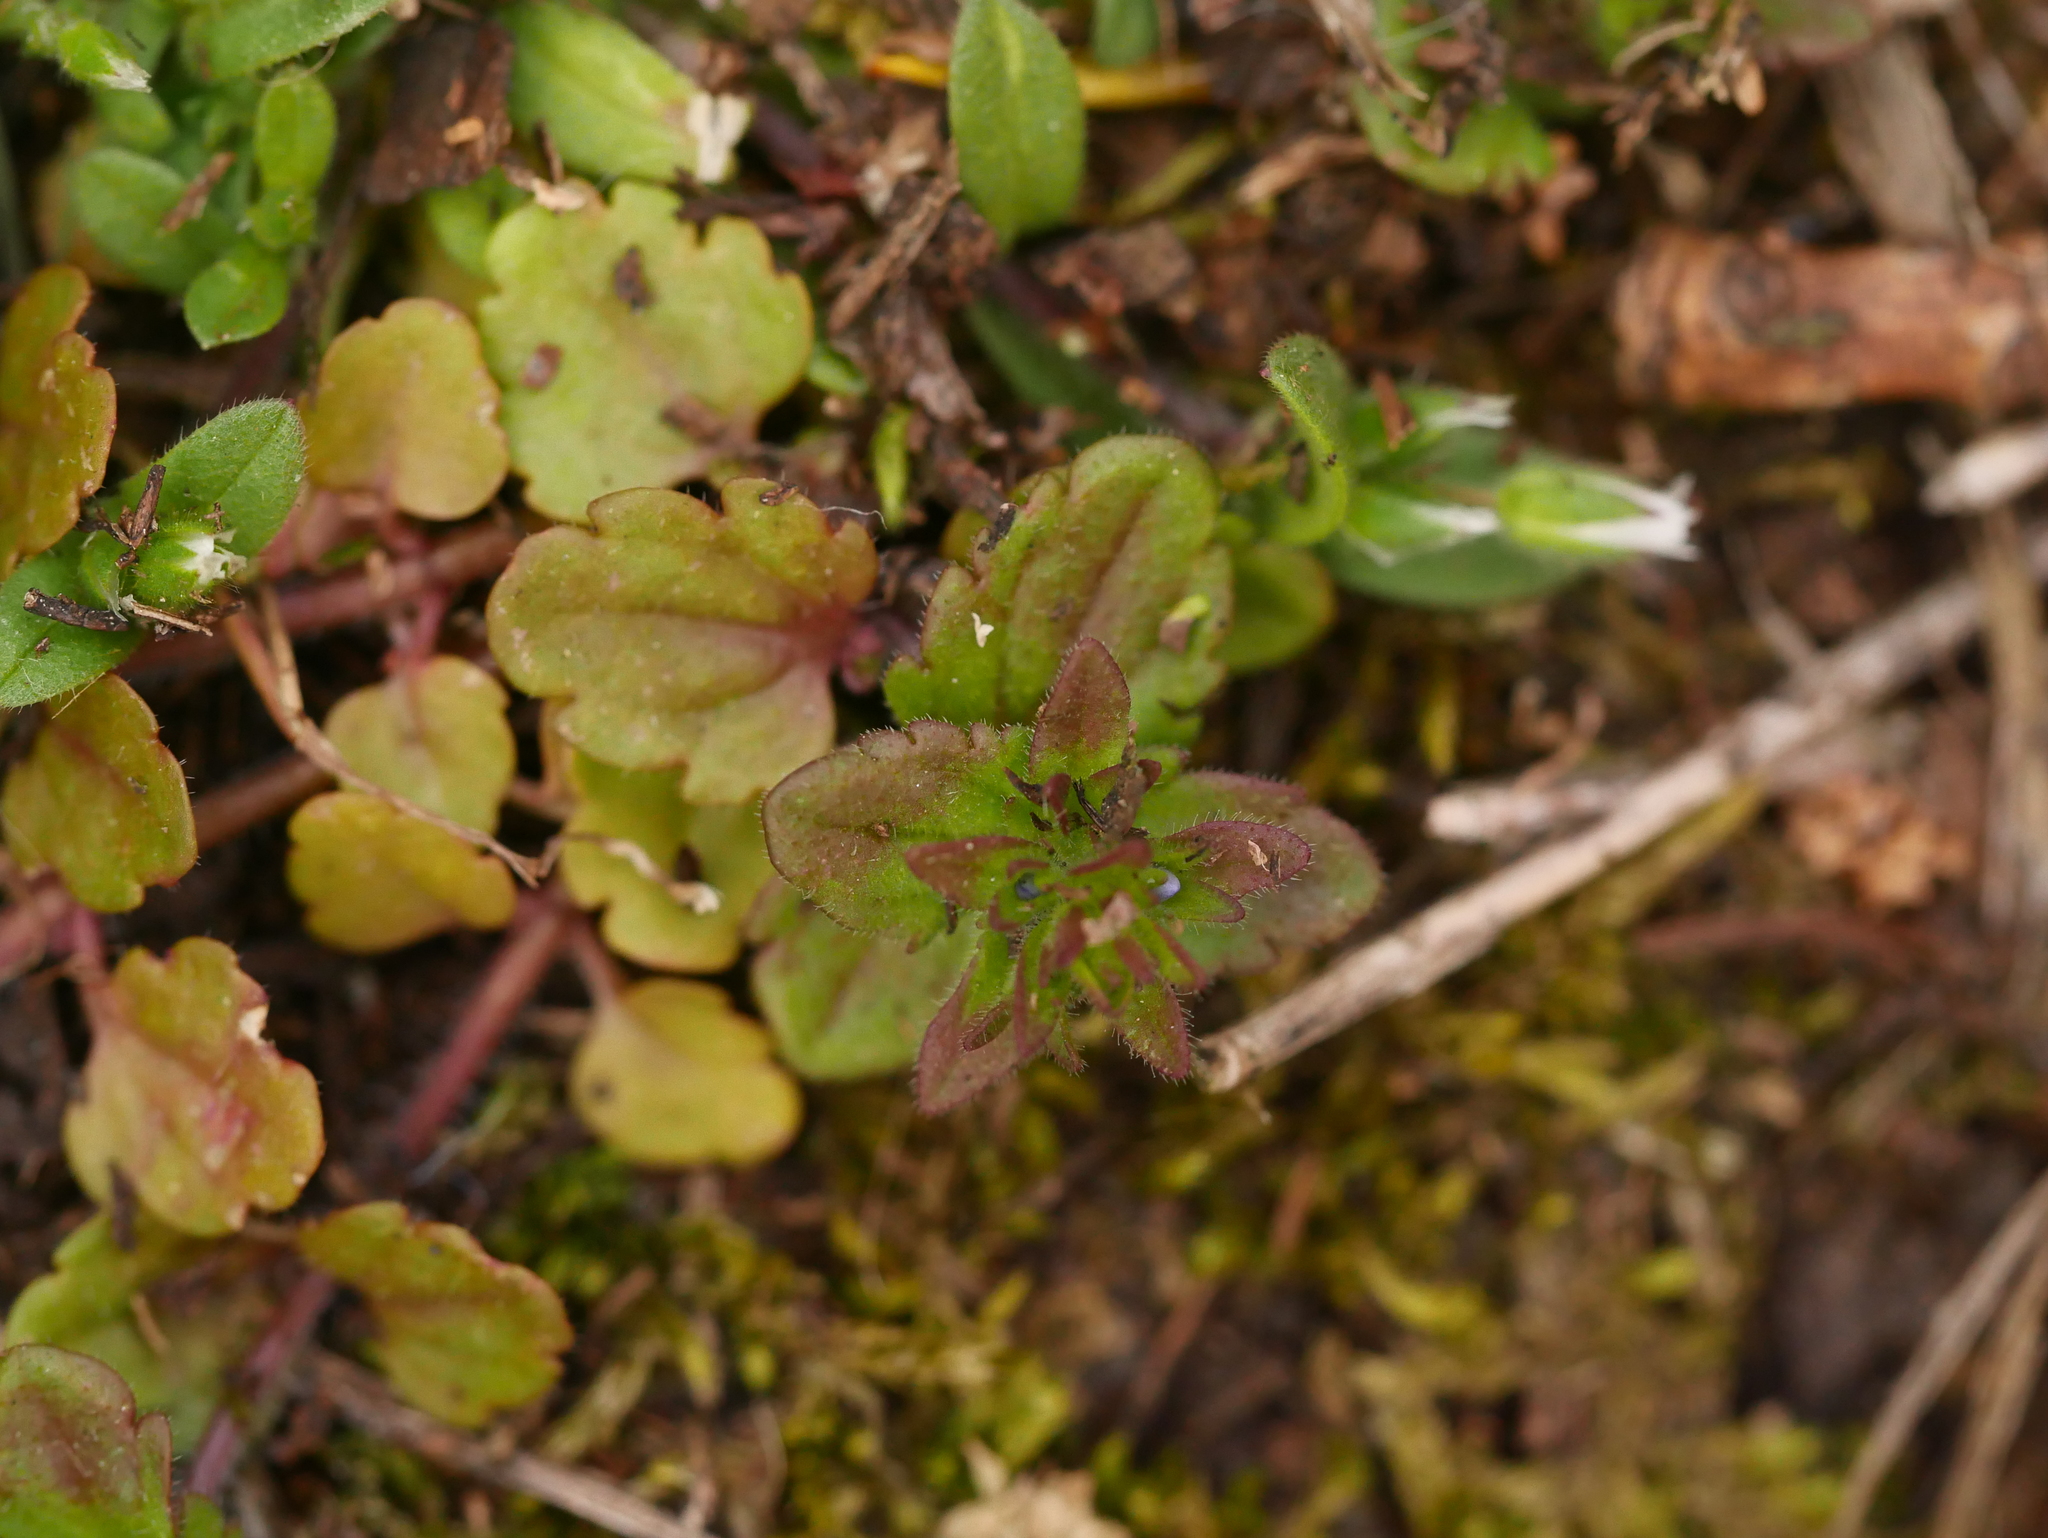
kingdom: Plantae
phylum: Tracheophyta
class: Magnoliopsida
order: Lamiales
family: Plantaginaceae
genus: Veronica
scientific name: Veronica arvensis
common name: Corn speedwell
